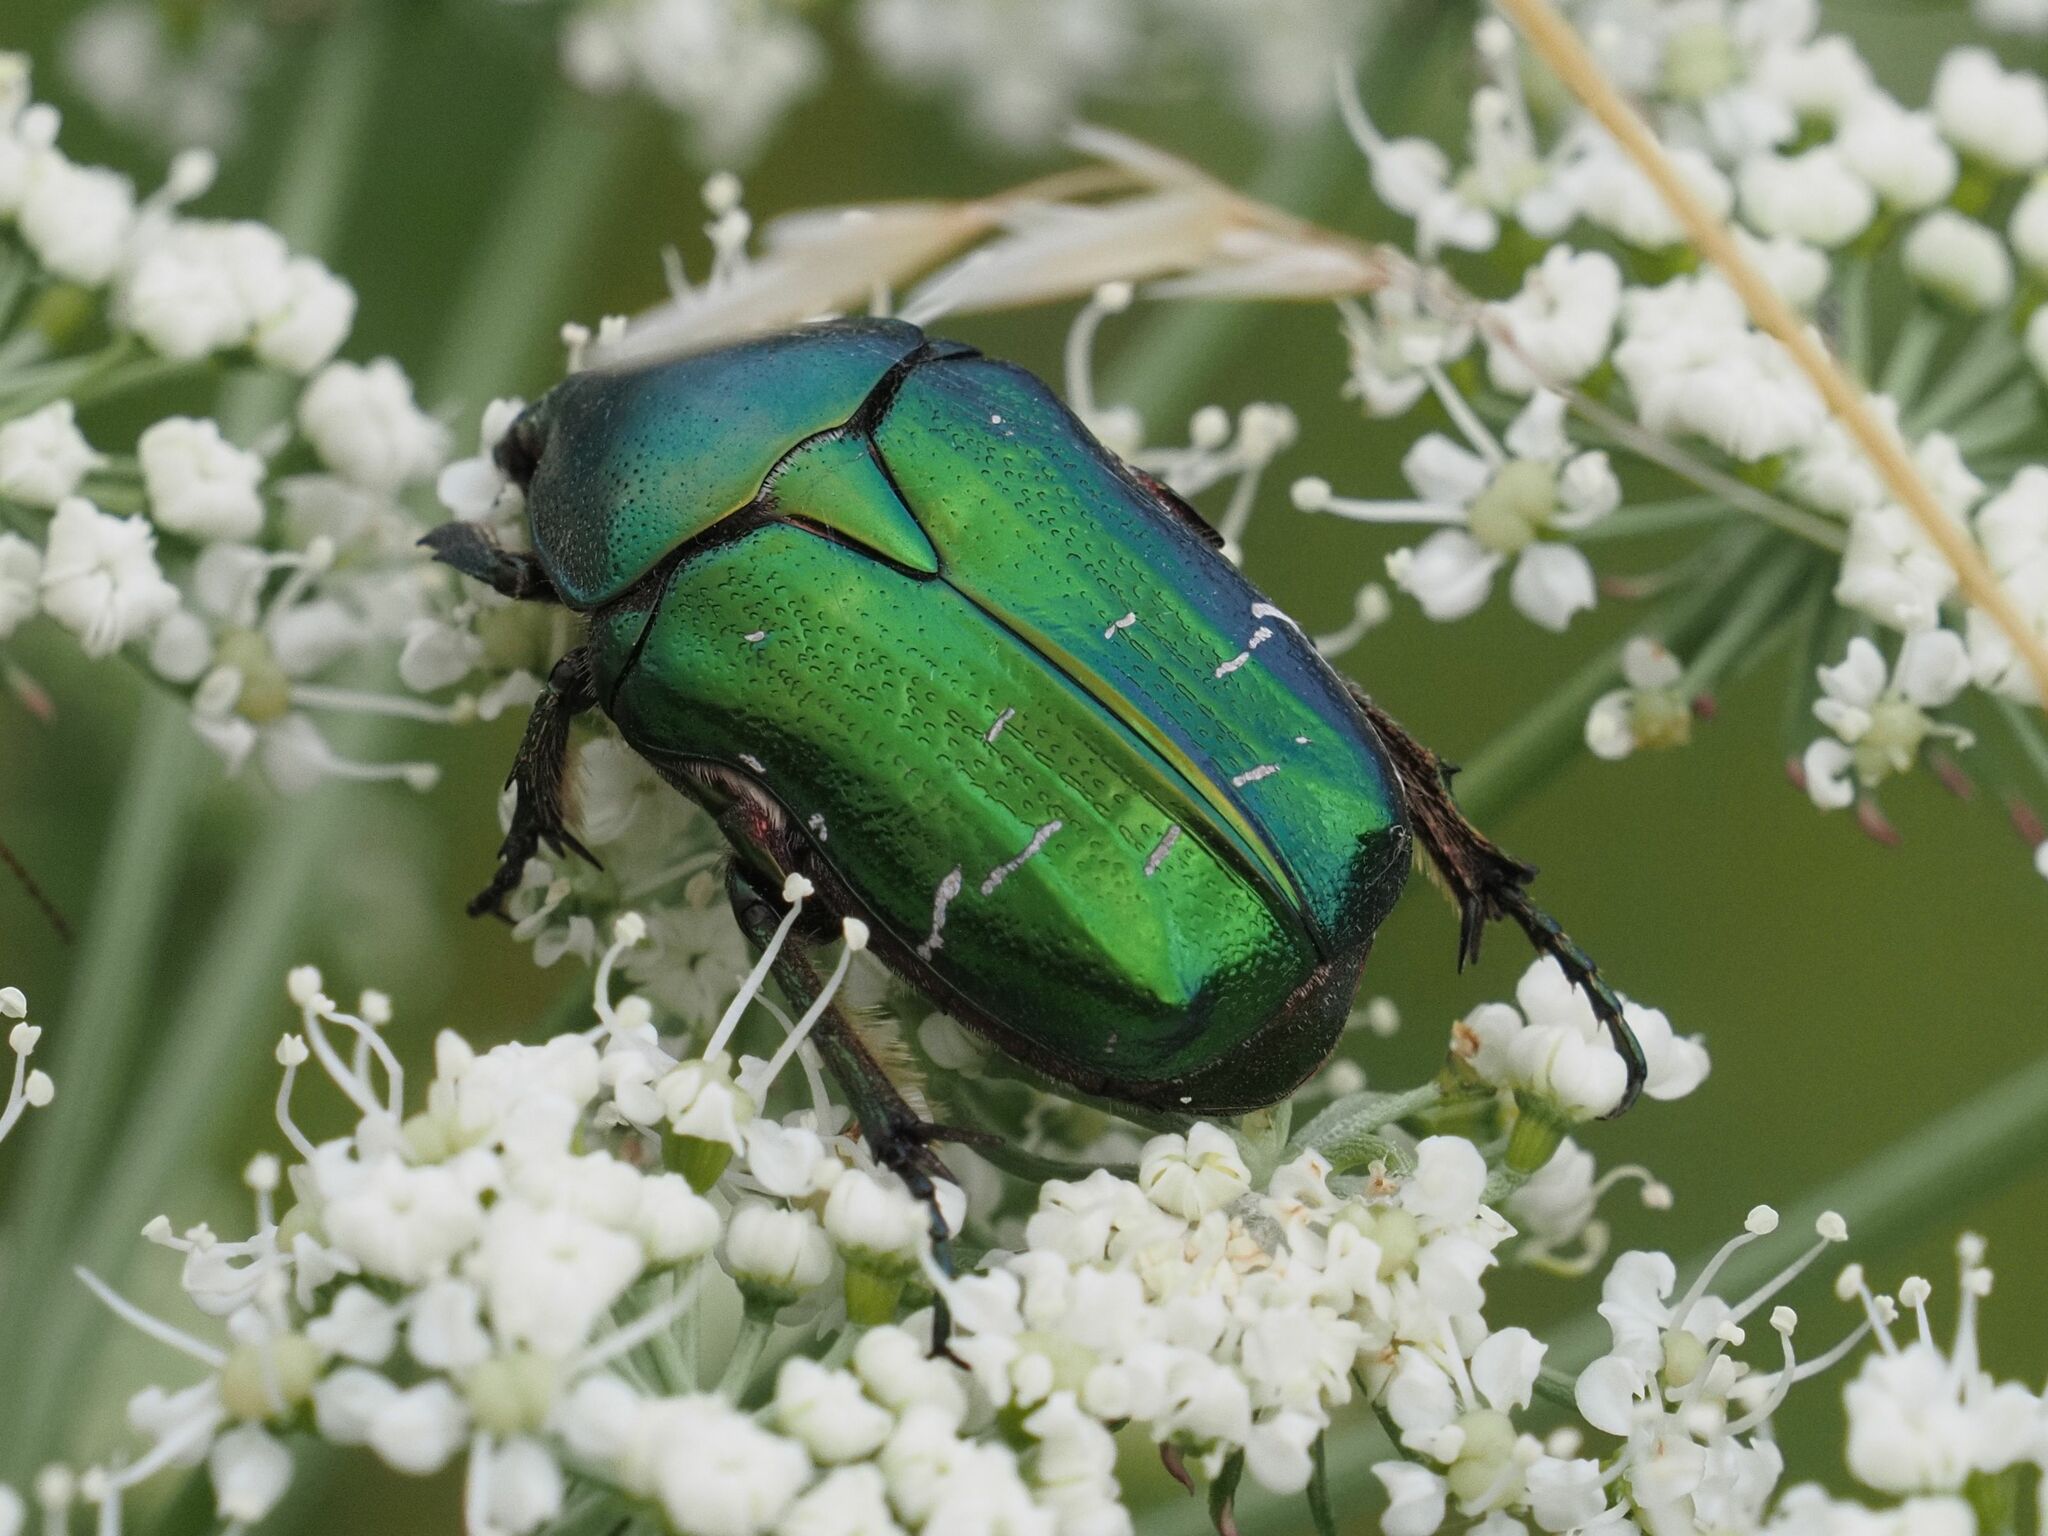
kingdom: Animalia
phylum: Arthropoda
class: Insecta
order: Coleoptera
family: Scarabaeidae
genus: Cetonia
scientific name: Cetonia aurata
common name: Rose chafer
